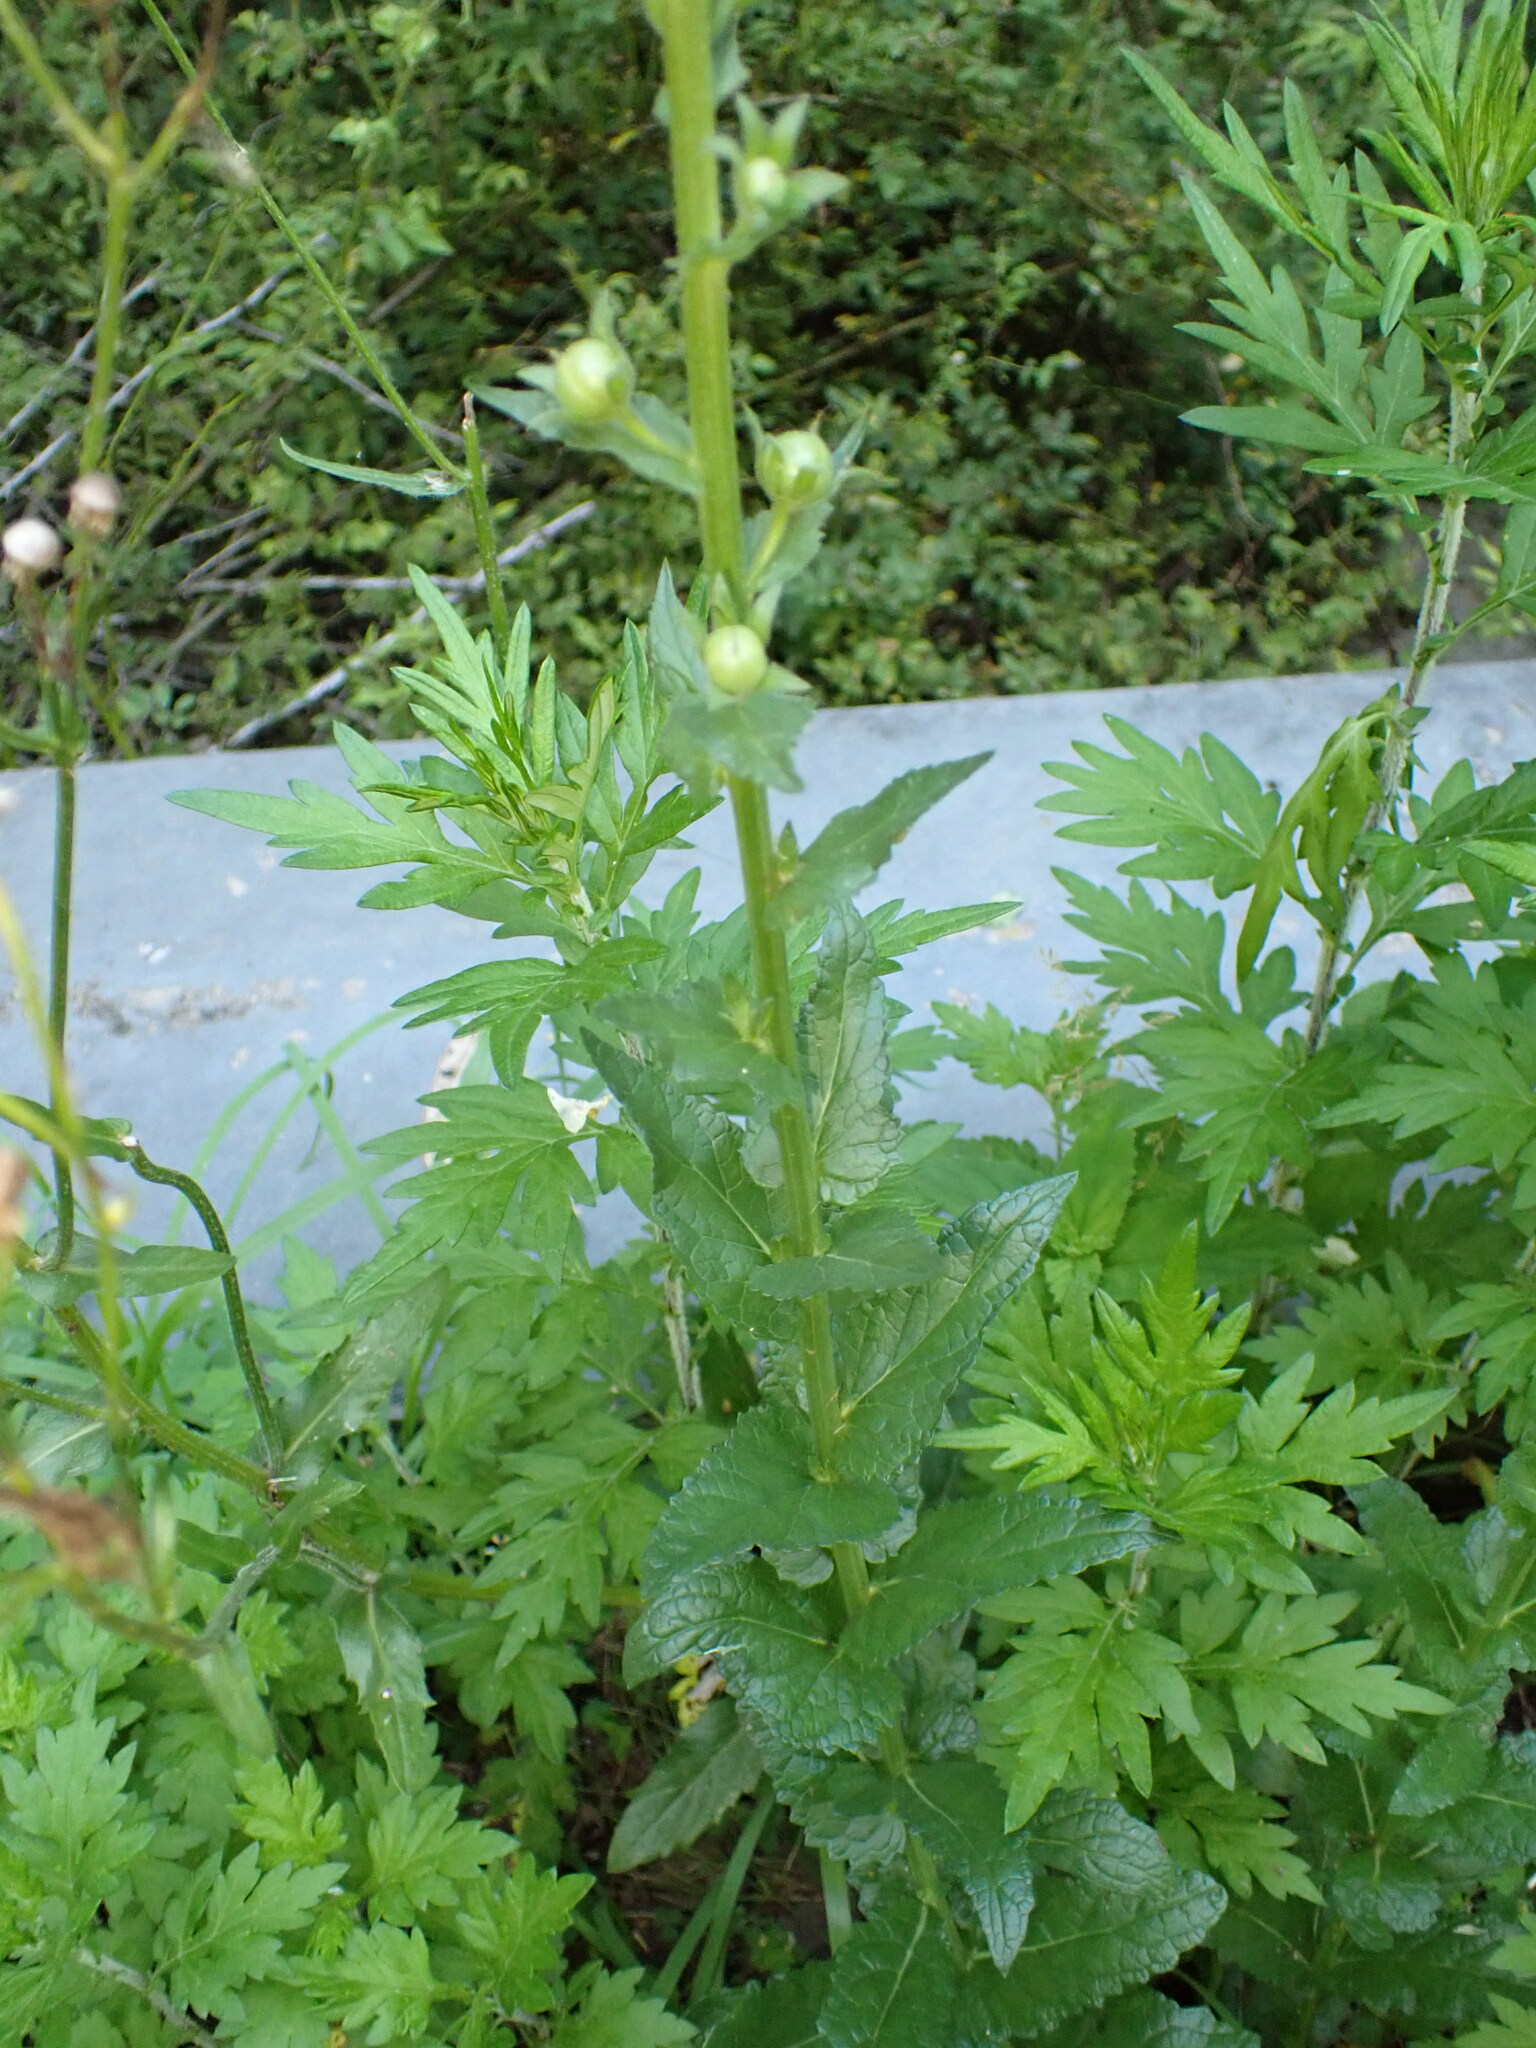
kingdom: Plantae
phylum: Tracheophyta
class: Magnoliopsida
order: Lamiales
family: Scrophulariaceae
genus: Verbascum
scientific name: Verbascum blattaria
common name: Moth mullein
